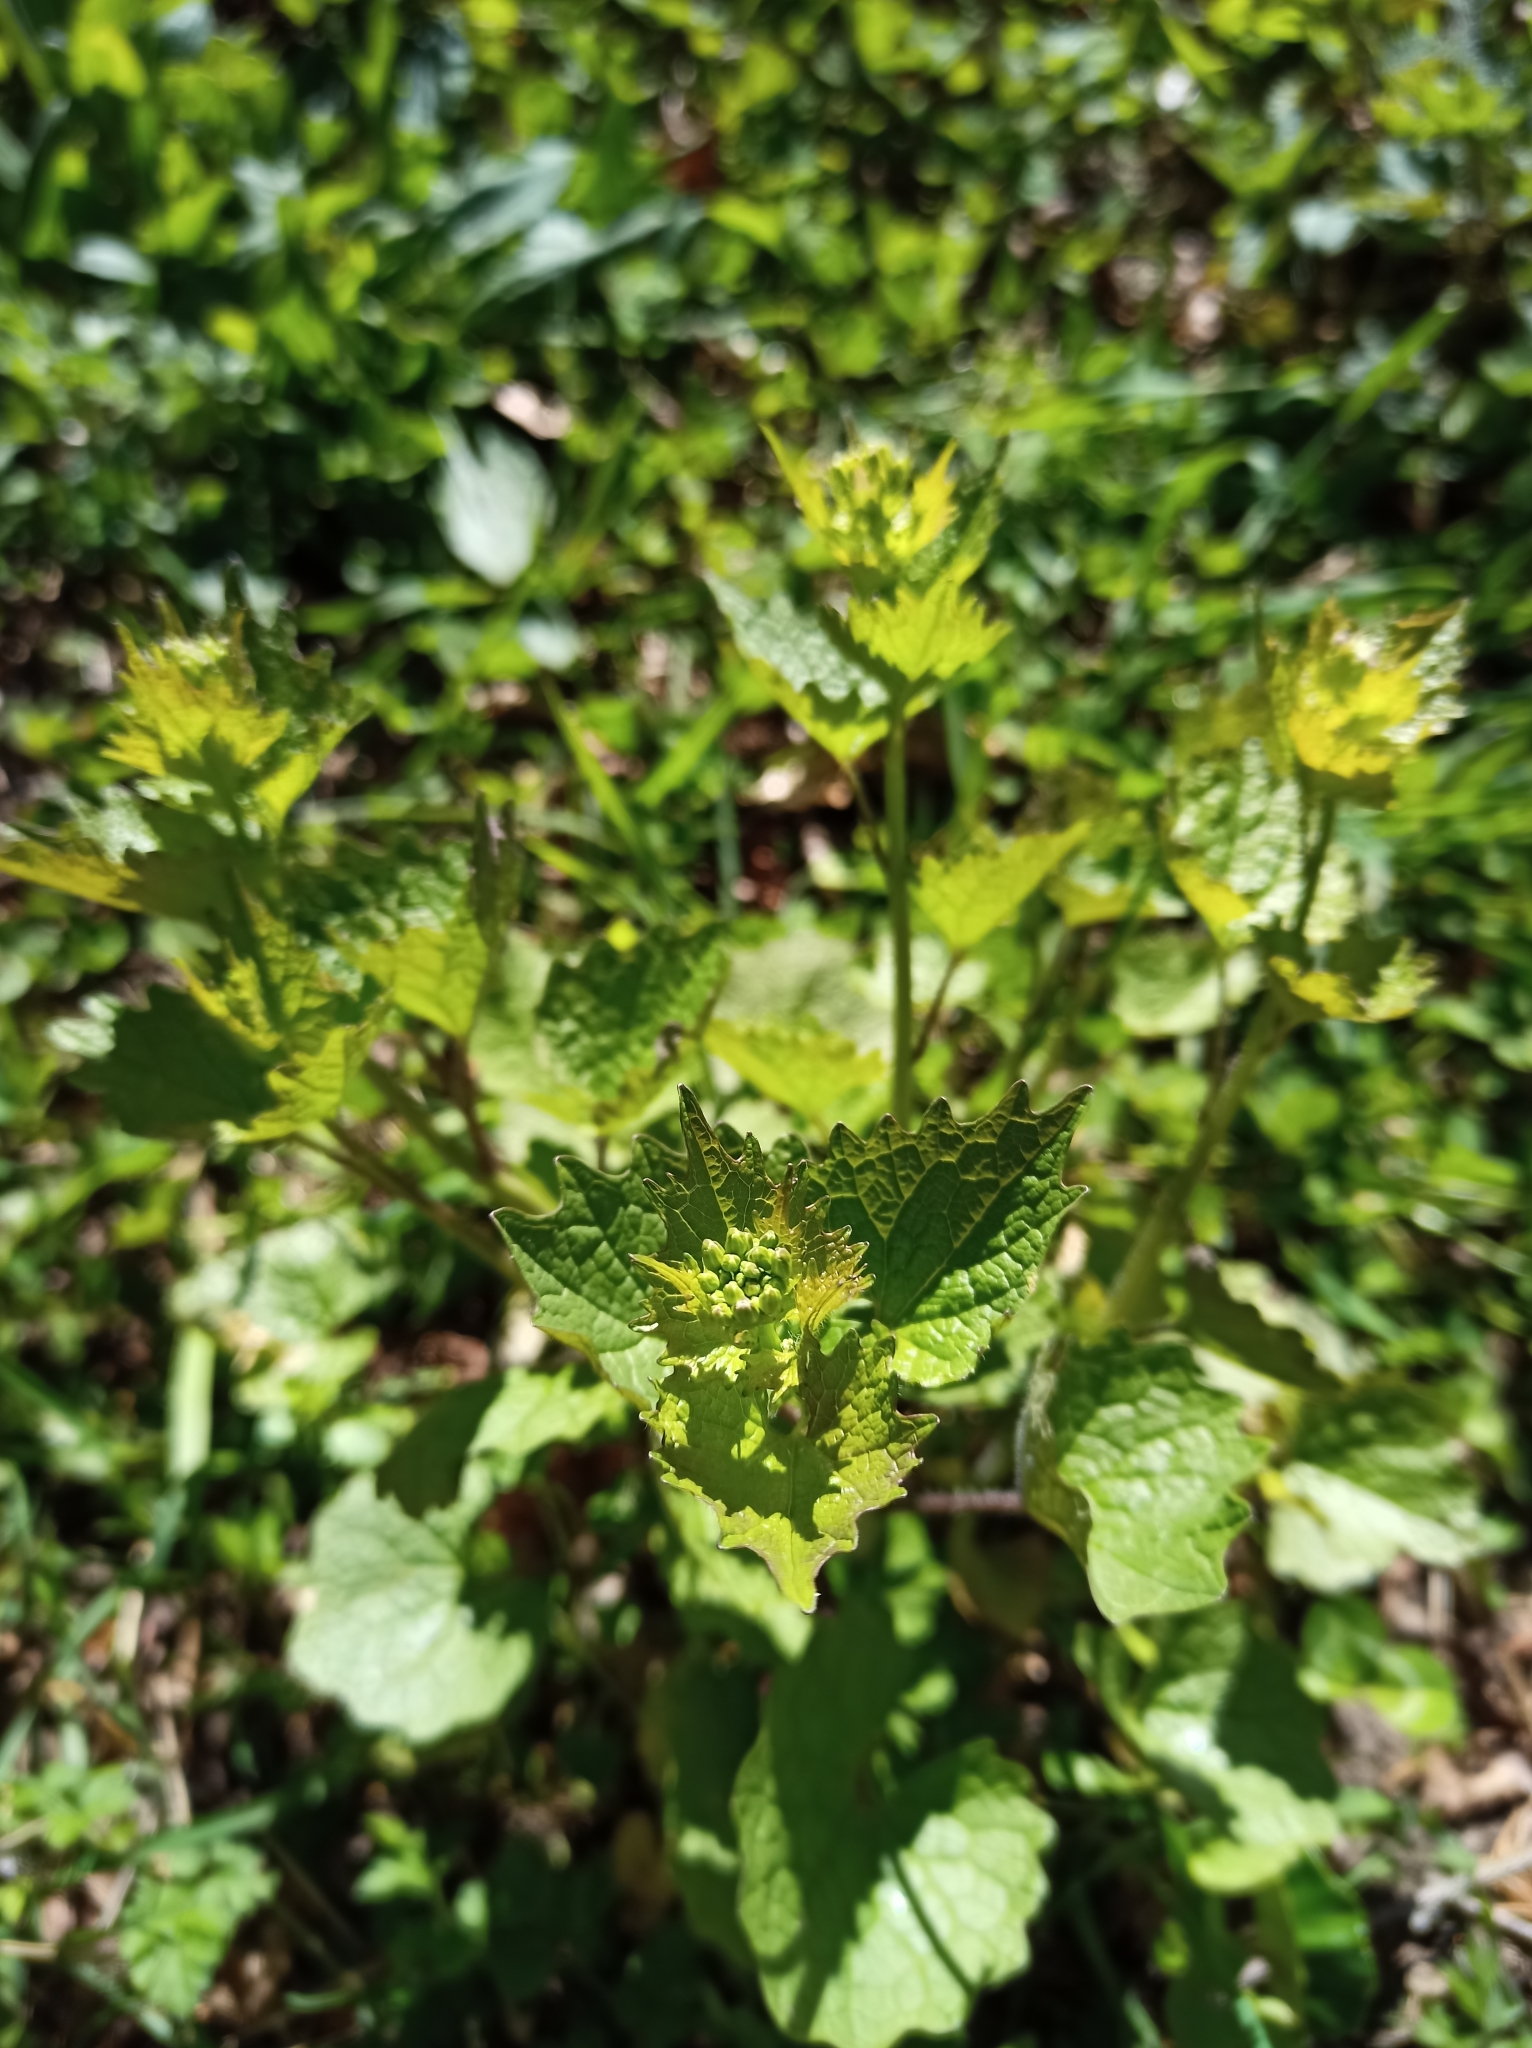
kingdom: Plantae
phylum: Tracheophyta
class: Magnoliopsida
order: Brassicales
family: Brassicaceae
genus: Alliaria
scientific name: Alliaria petiolata
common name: Garlic mustard
